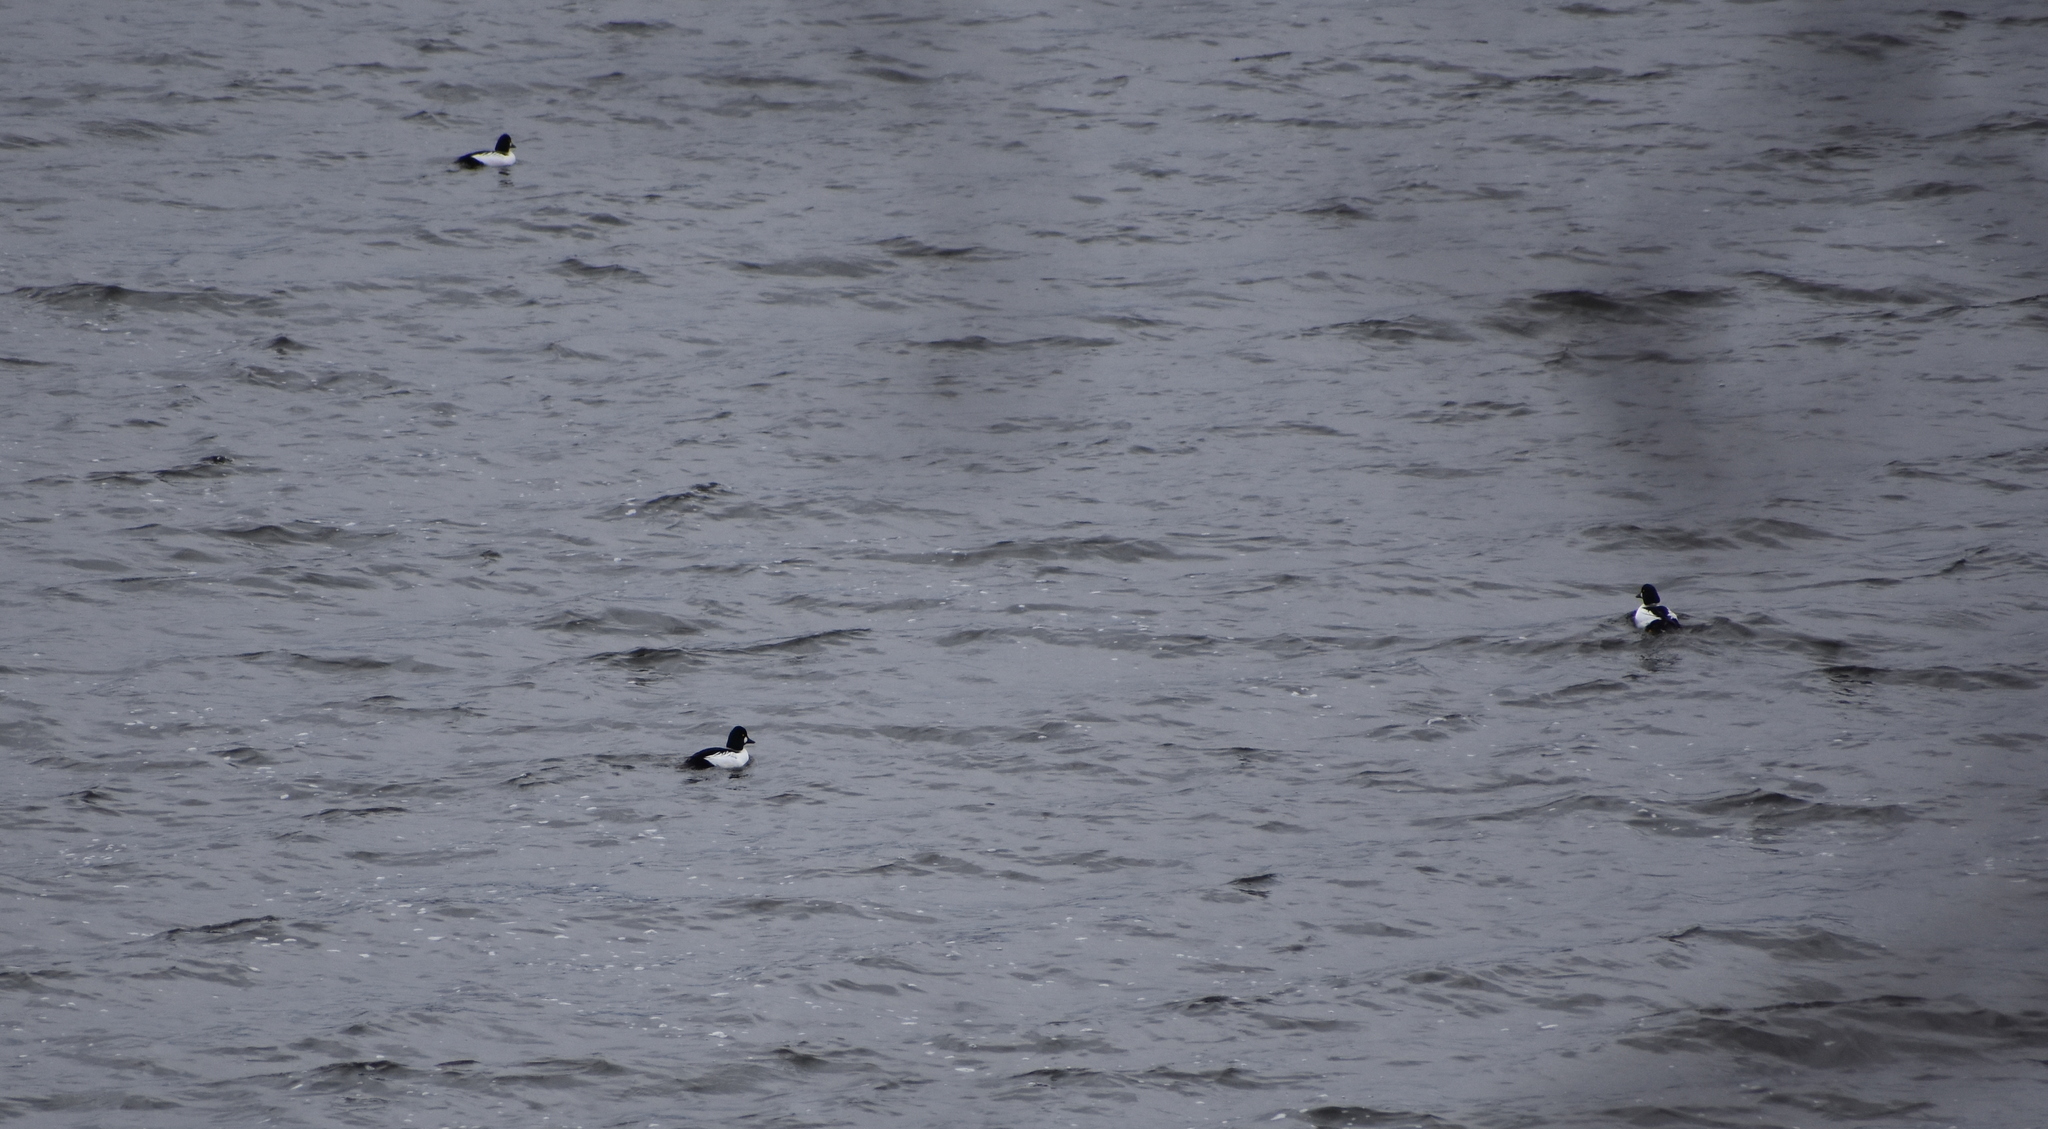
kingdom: Animalia
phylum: Chordata
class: Aves
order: Anseriformes
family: Anatidae
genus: Bucephala
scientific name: Bucephala clangula
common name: Common goldeneye
